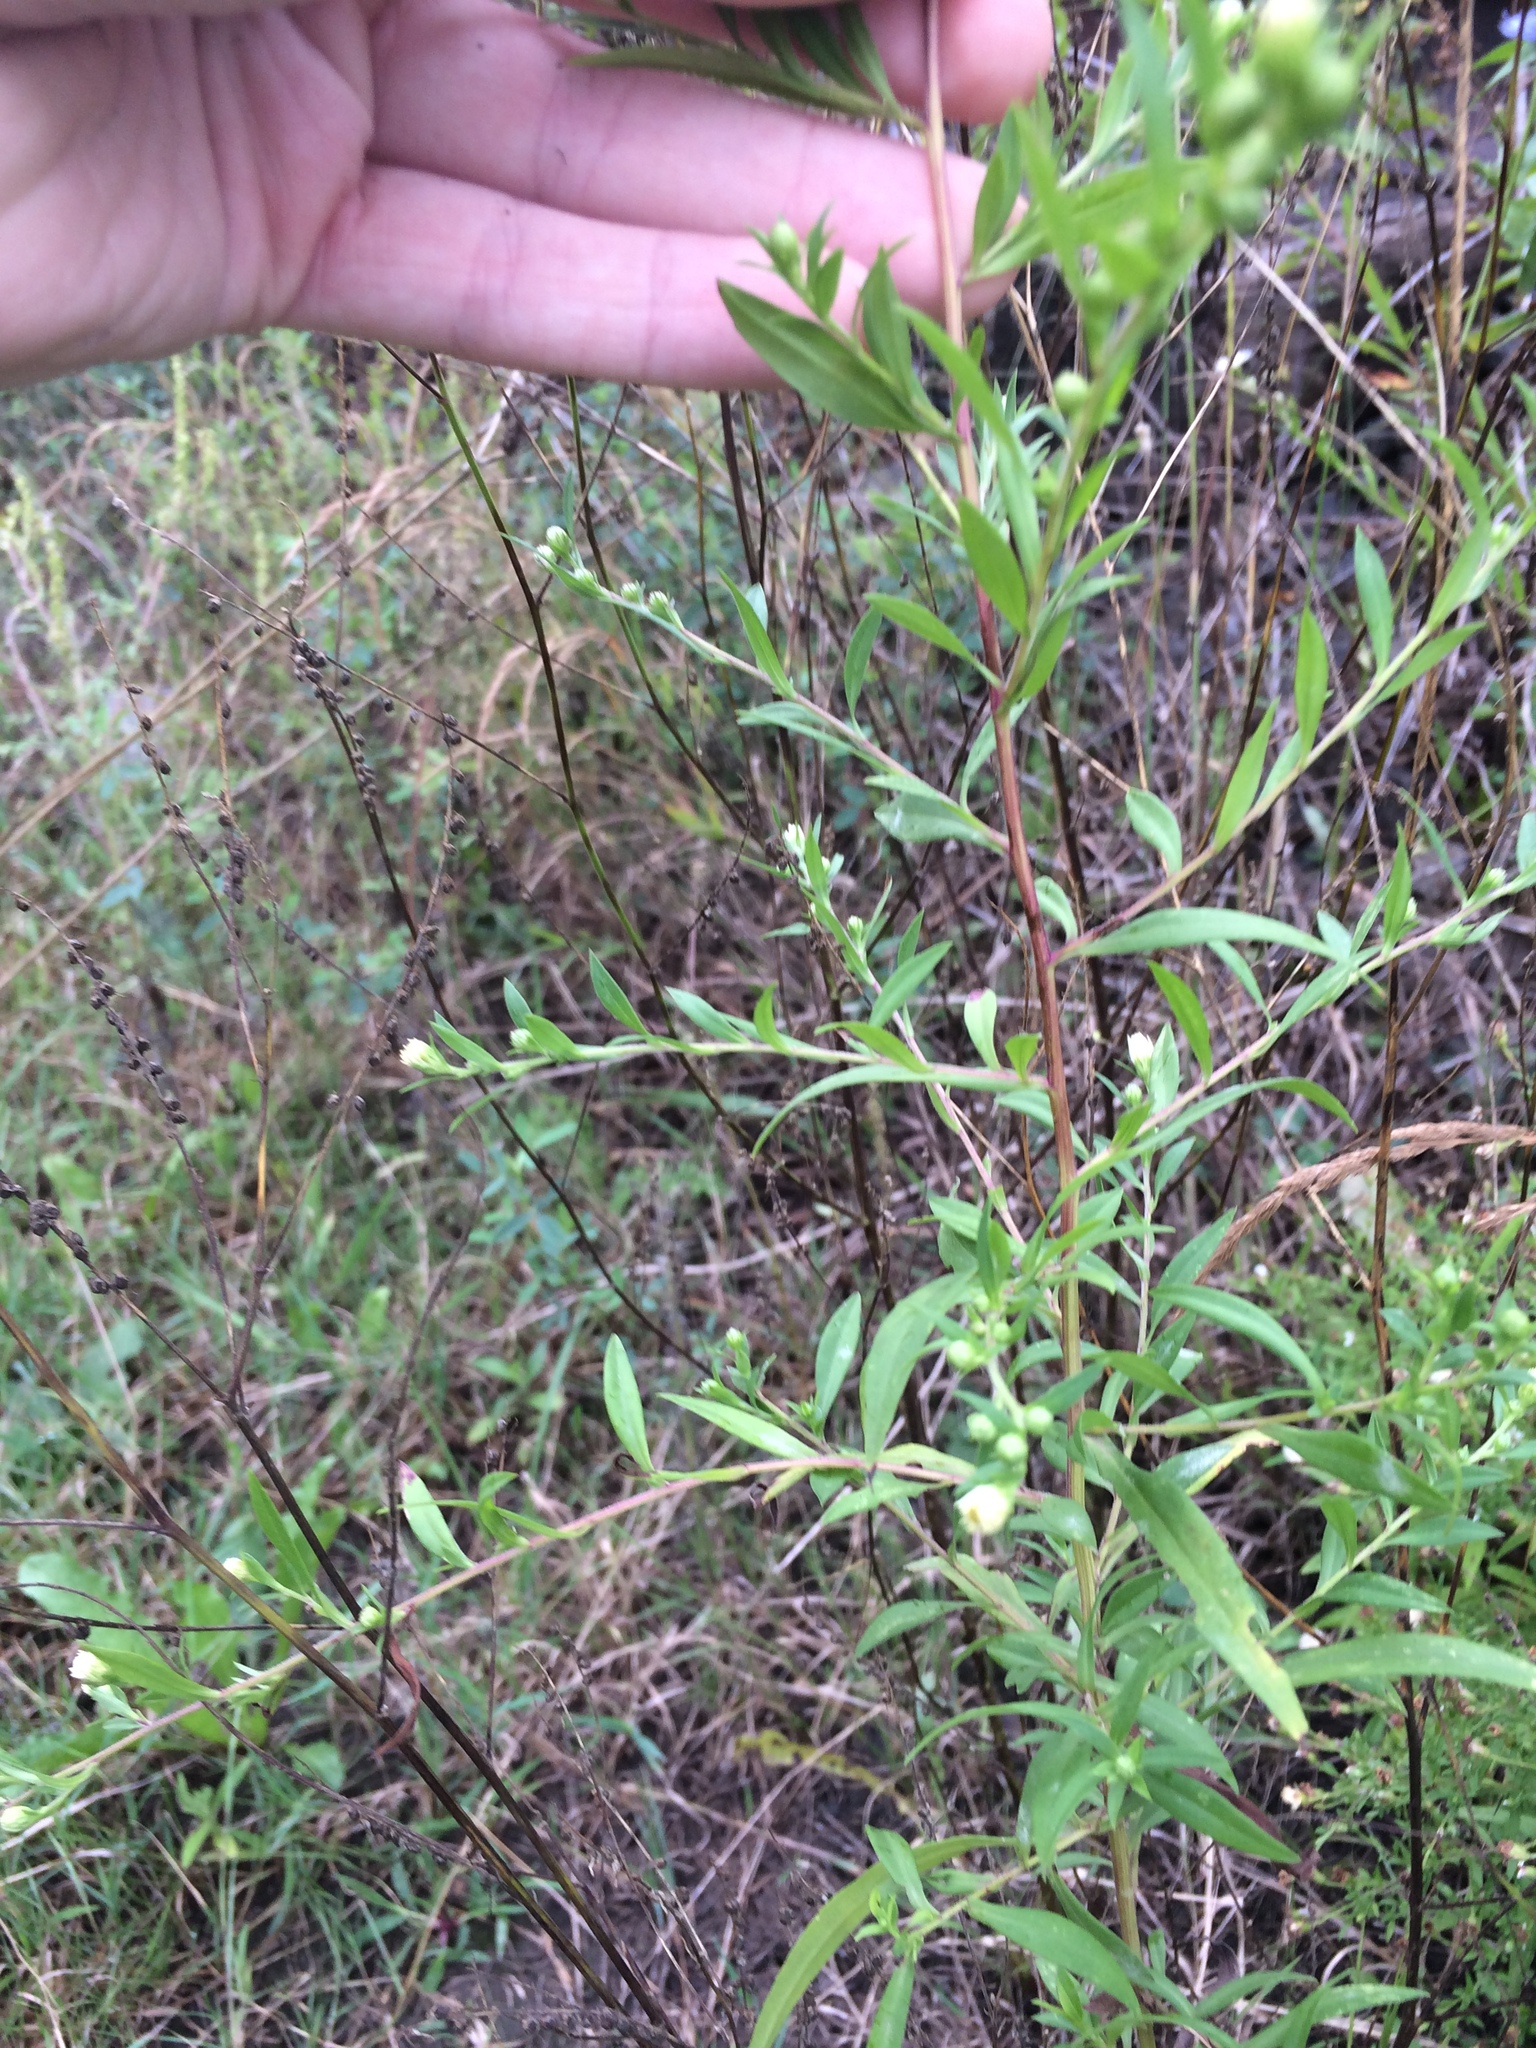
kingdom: Plantae
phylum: Tracheophyta
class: Magnoliopsida
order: Asterales
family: Asteraceae
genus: Symphyotrichum
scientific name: Symphyotrichum lanceolatum
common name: Panicled aster
